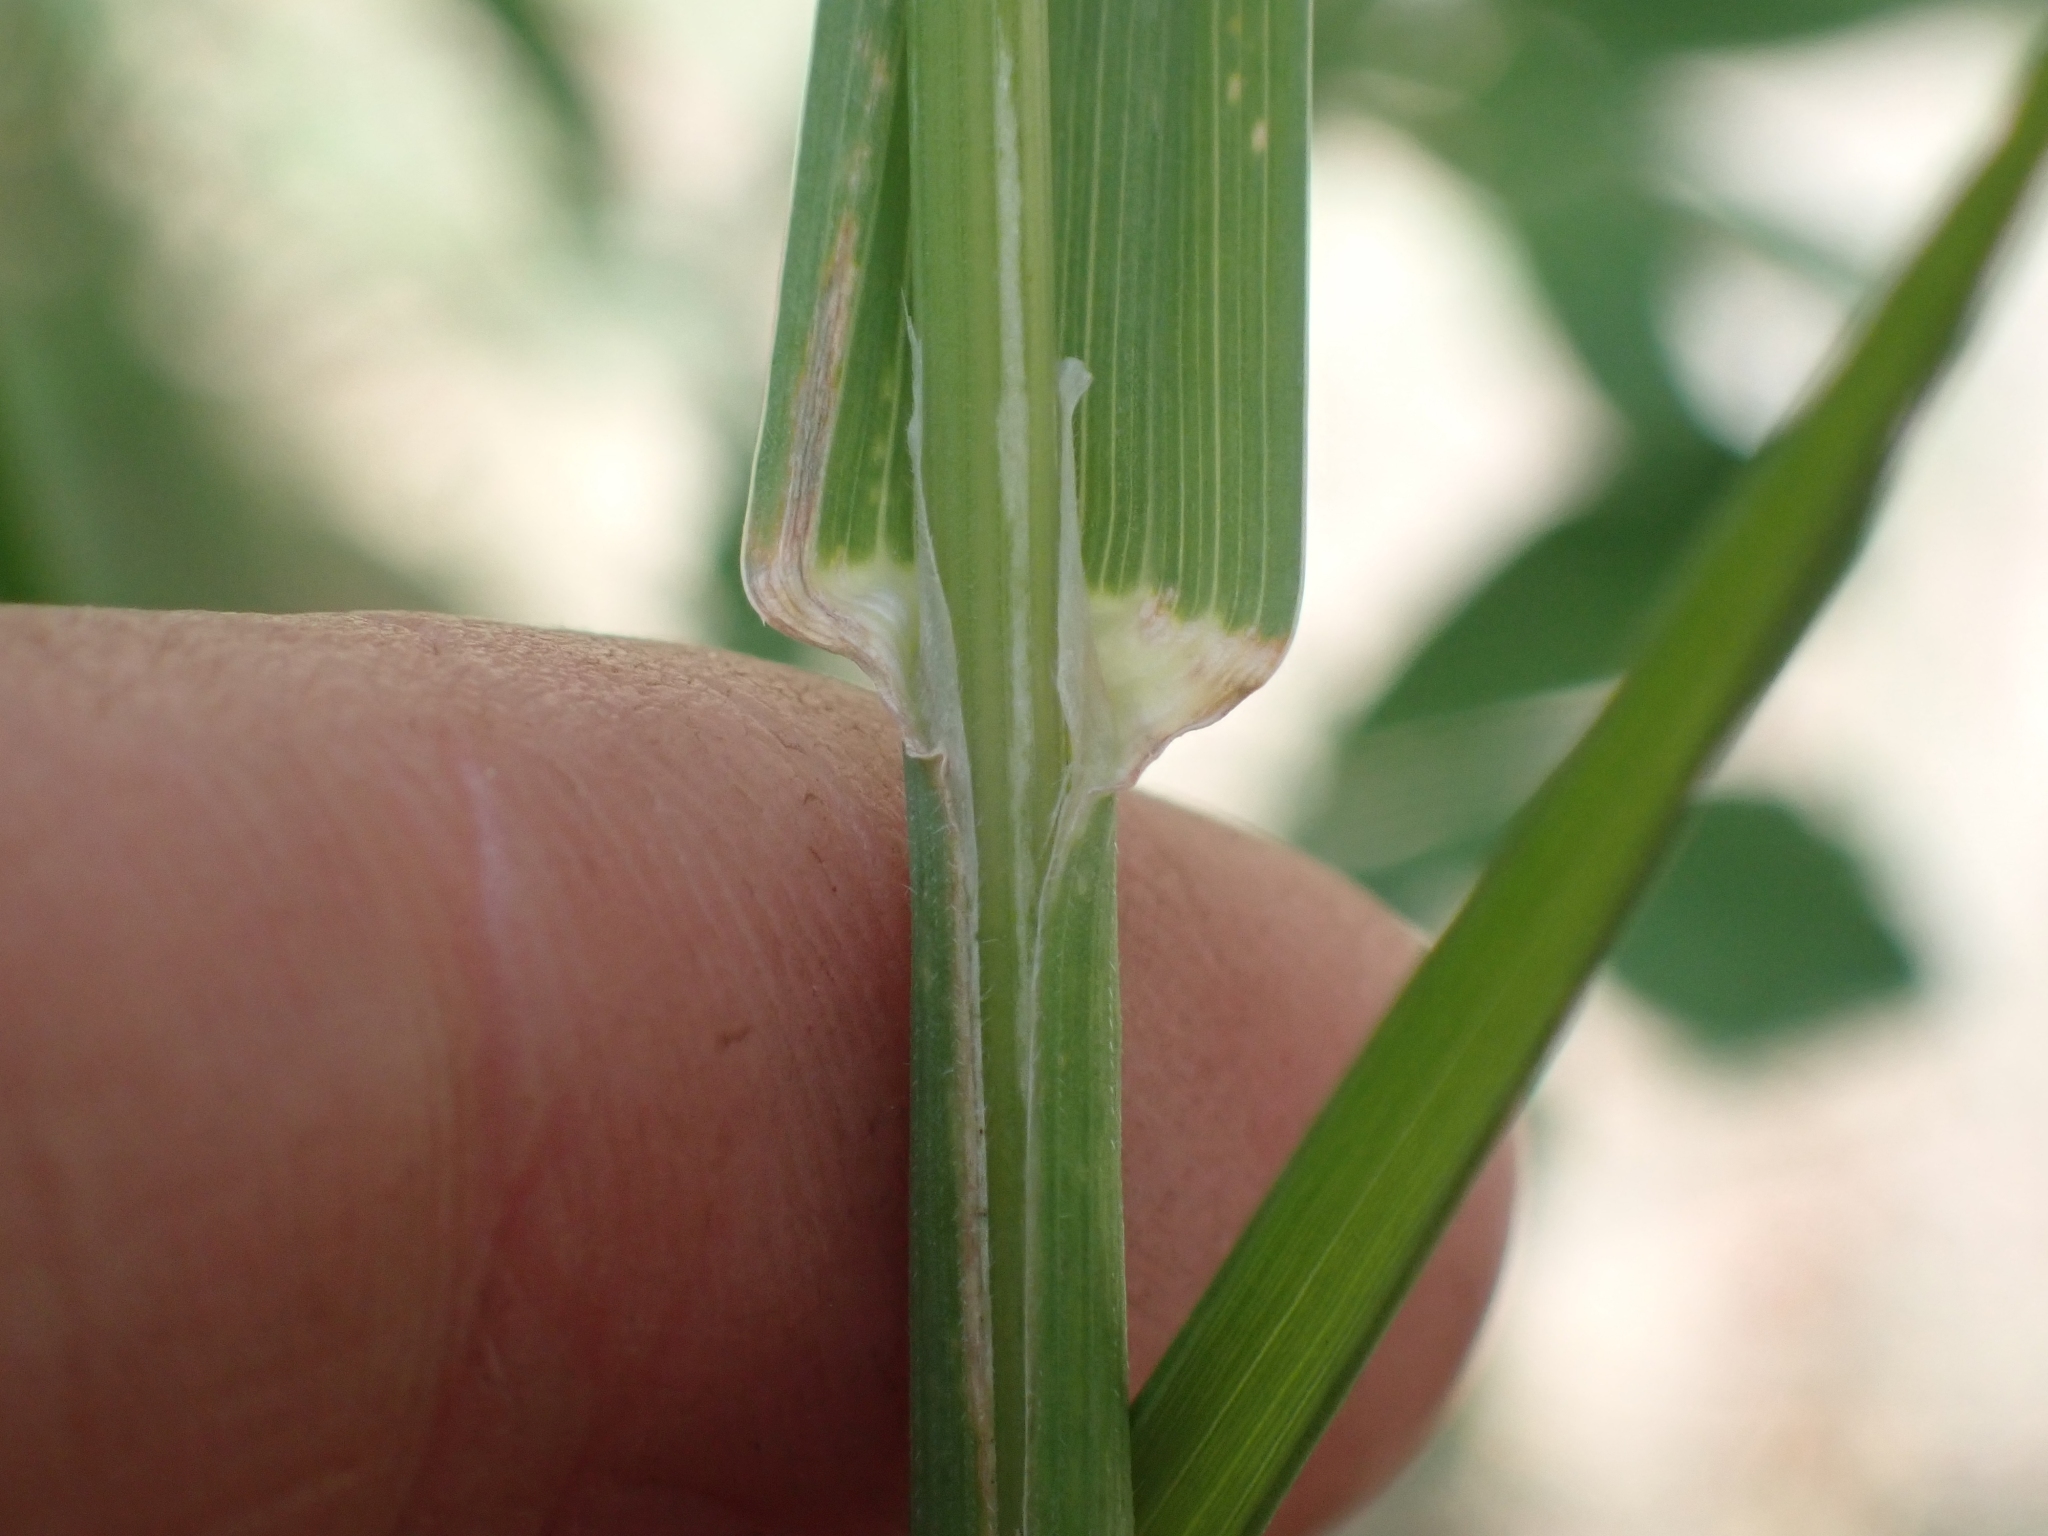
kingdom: Plantae
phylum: Tracheophyta
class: Liliopsida
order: Poales
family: Poaceae
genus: Dactylis
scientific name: Dactylis glomerata
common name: Orchardgrass
